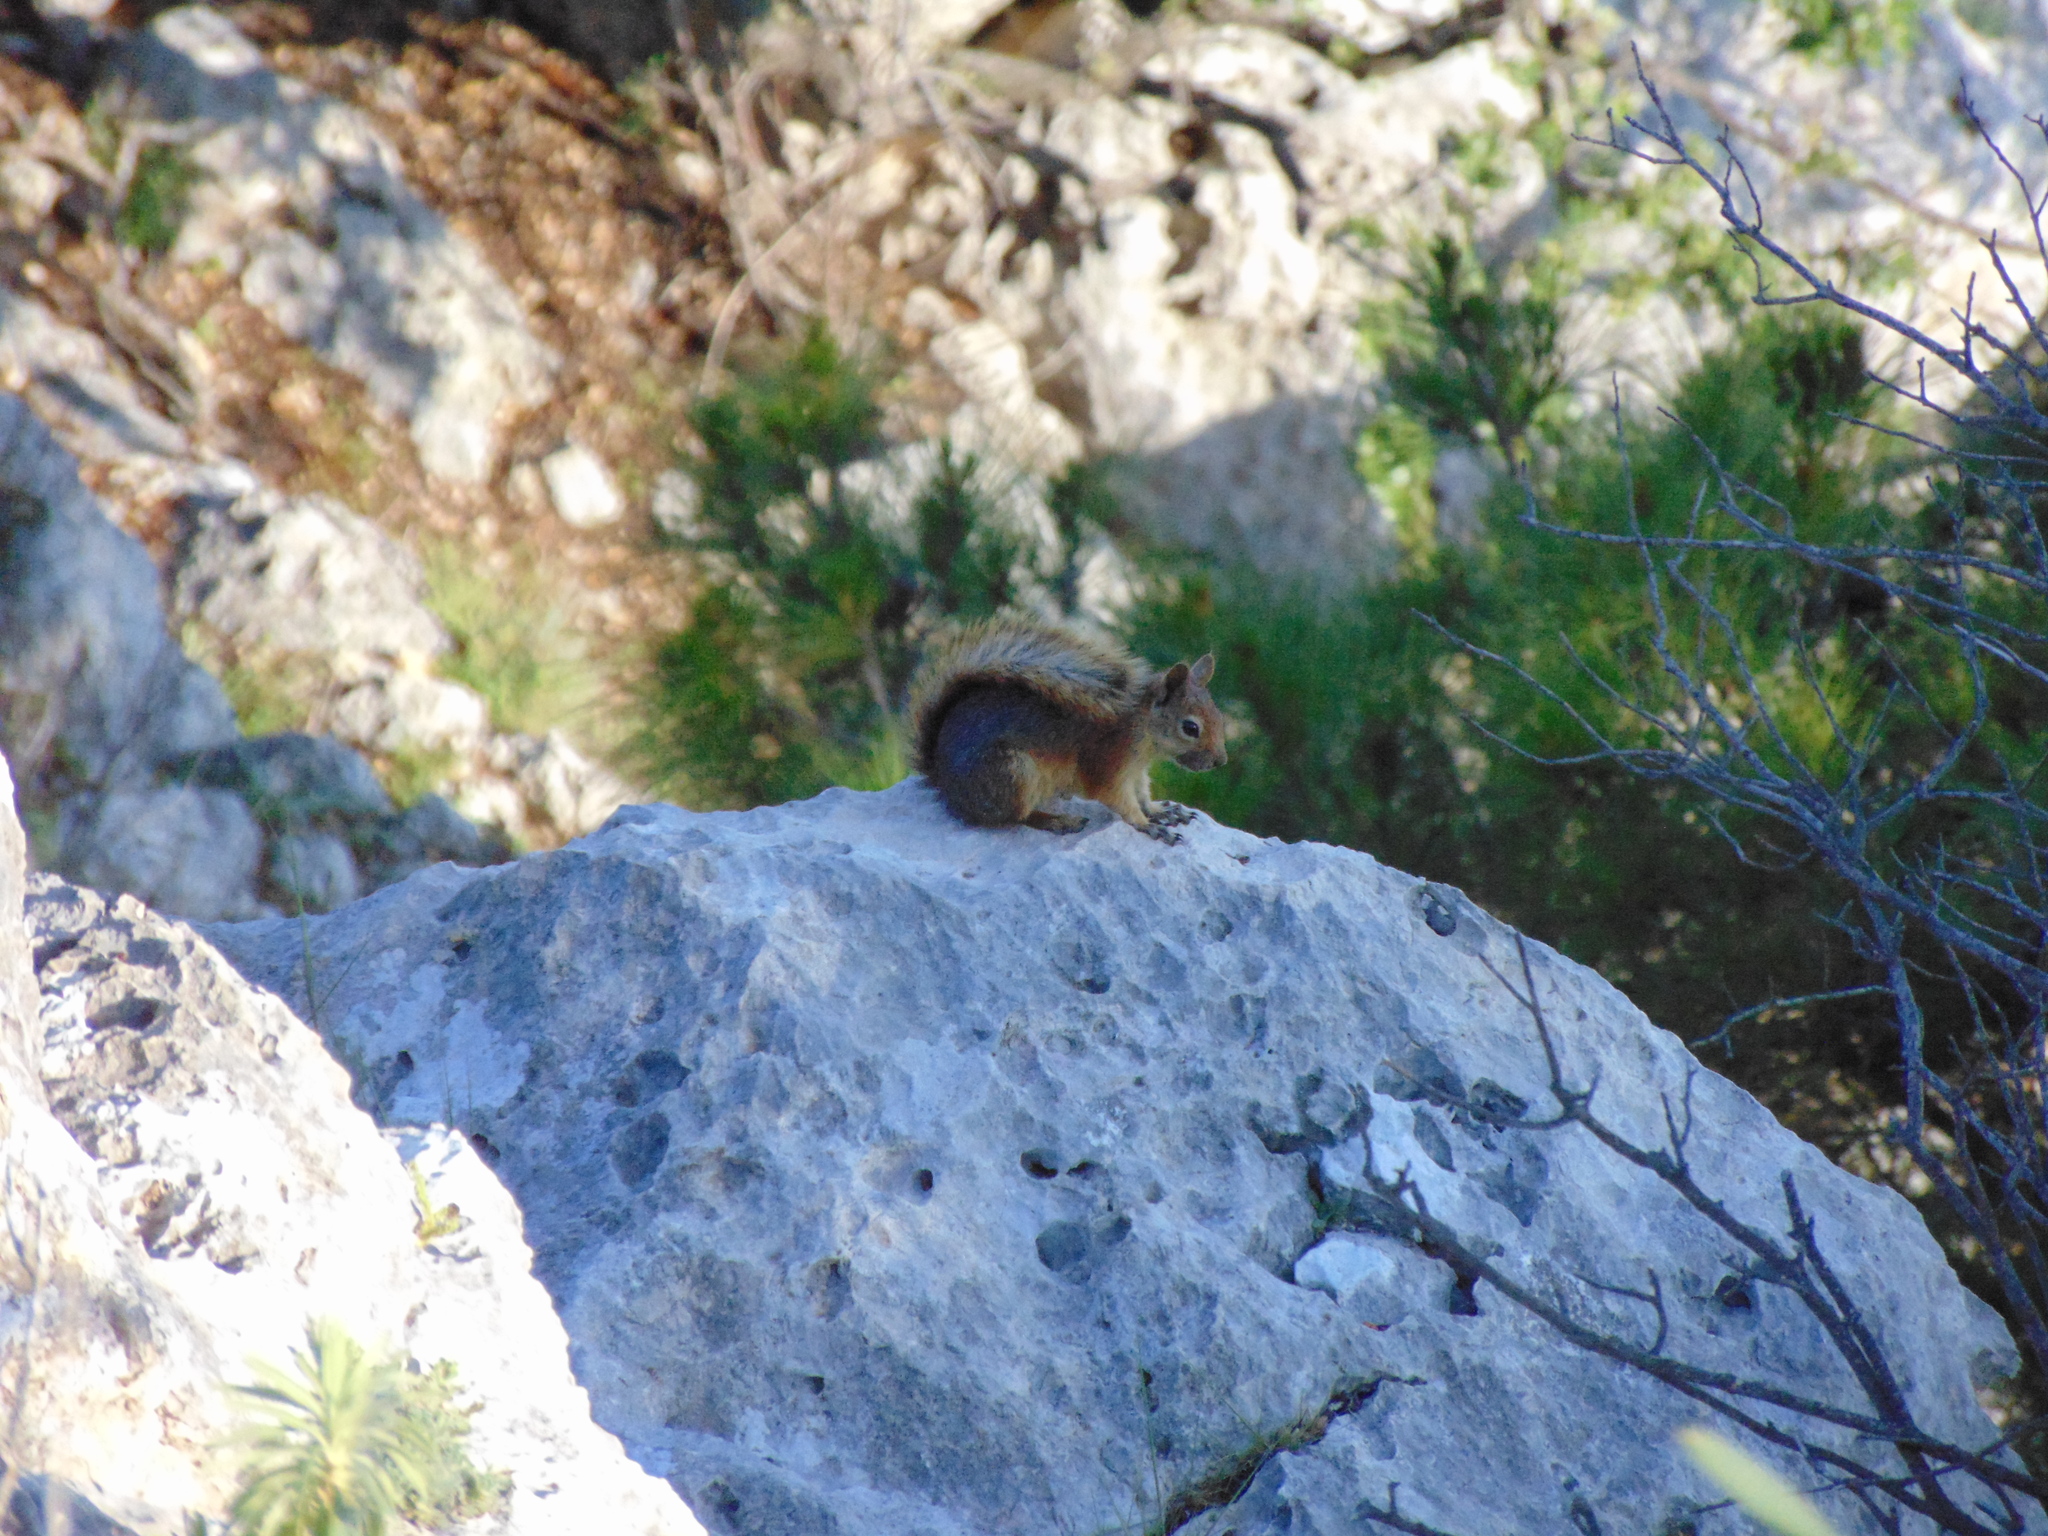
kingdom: Animalia
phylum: Chordata
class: Mammalia
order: Rodentia
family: Sciuridae
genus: Sciurus
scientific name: Sciurus anomalus
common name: Caucasian squirrel
